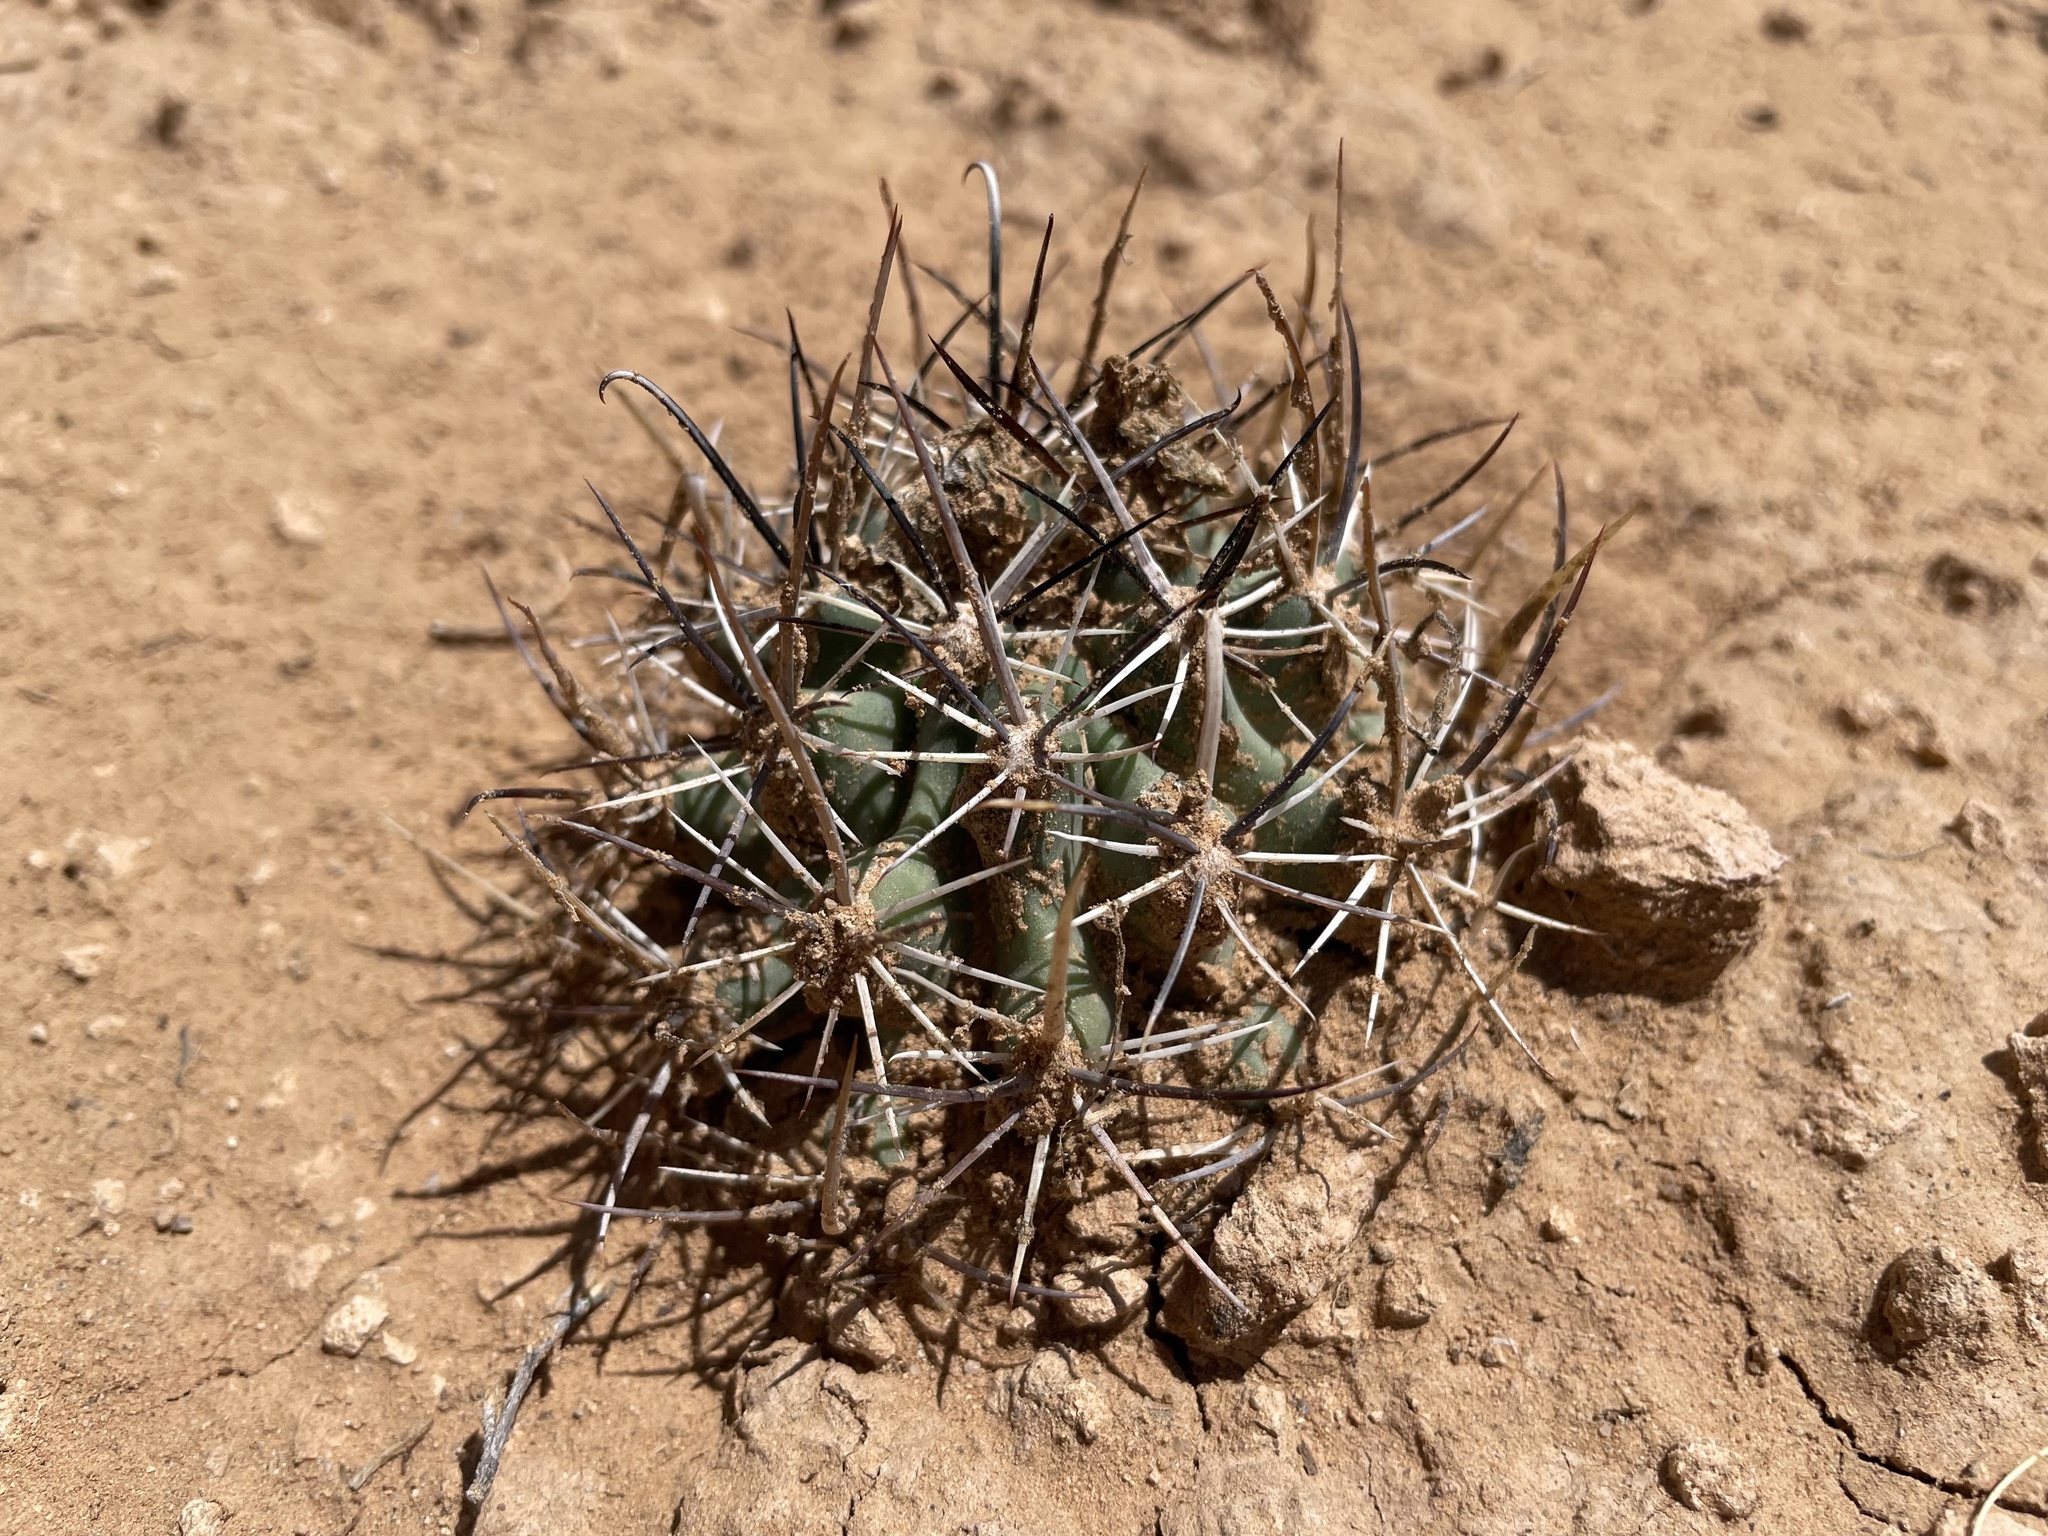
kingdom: Plantae
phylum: Tracheophyta
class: Magnoliopsida
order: Caryophyllales
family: Cactaceae
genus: Sclerocactus
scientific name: Sclerocactus cloverae
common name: Clover's eagle-claw cactus
